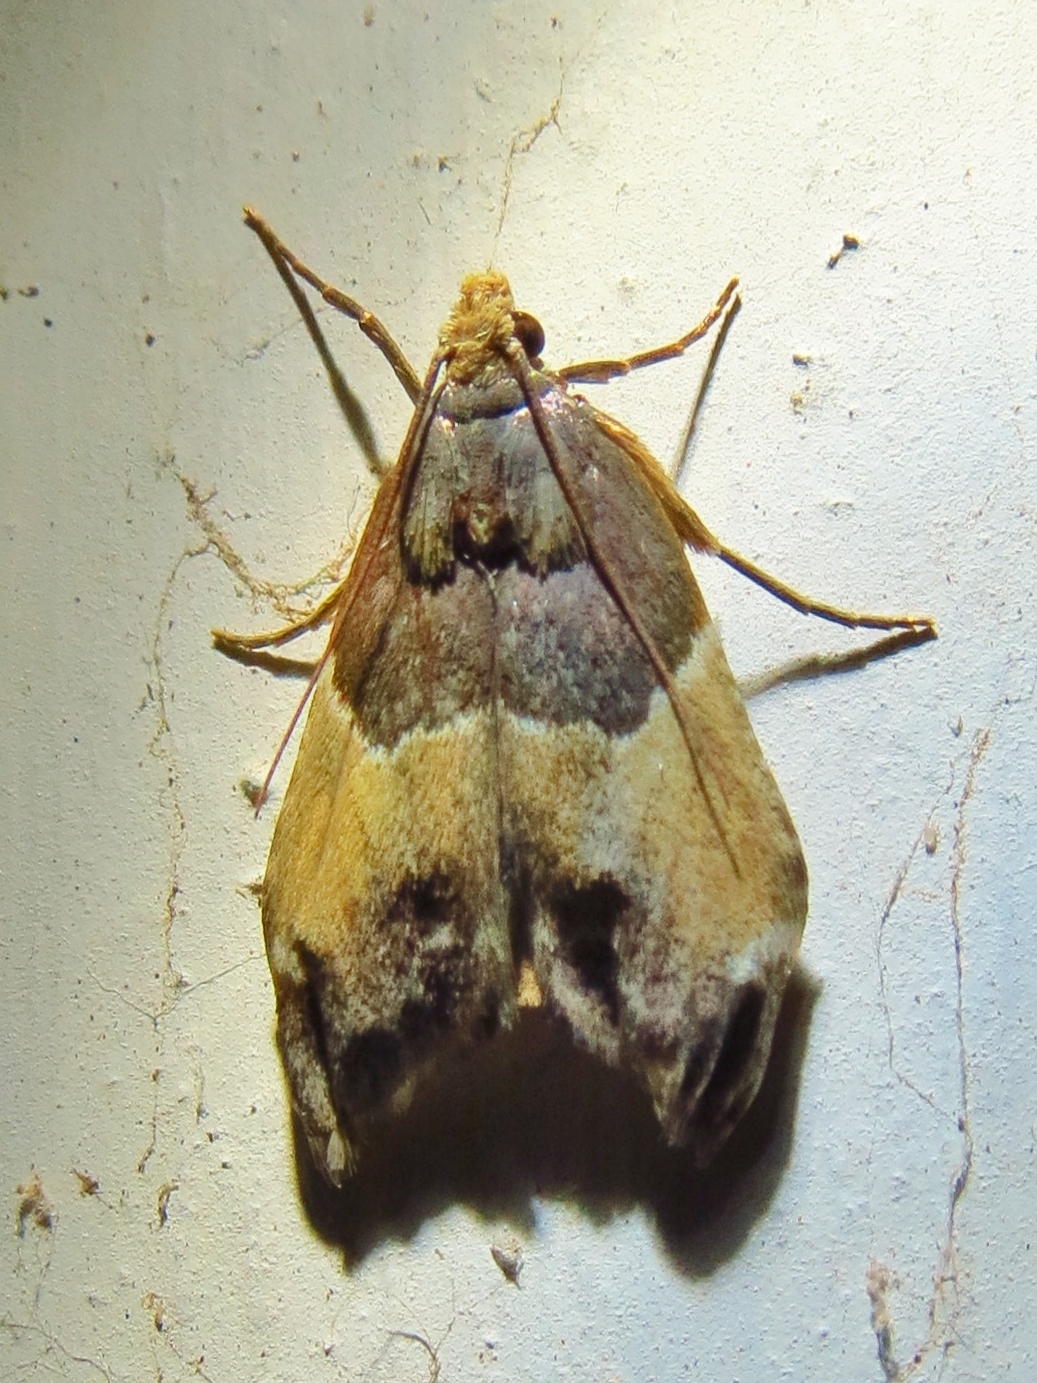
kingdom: Animalia
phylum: Arthropoda
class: Insecta
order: Lepidoptera
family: Pyralidae
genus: Pyralis
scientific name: Pyralis farinalis
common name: Meal moth
